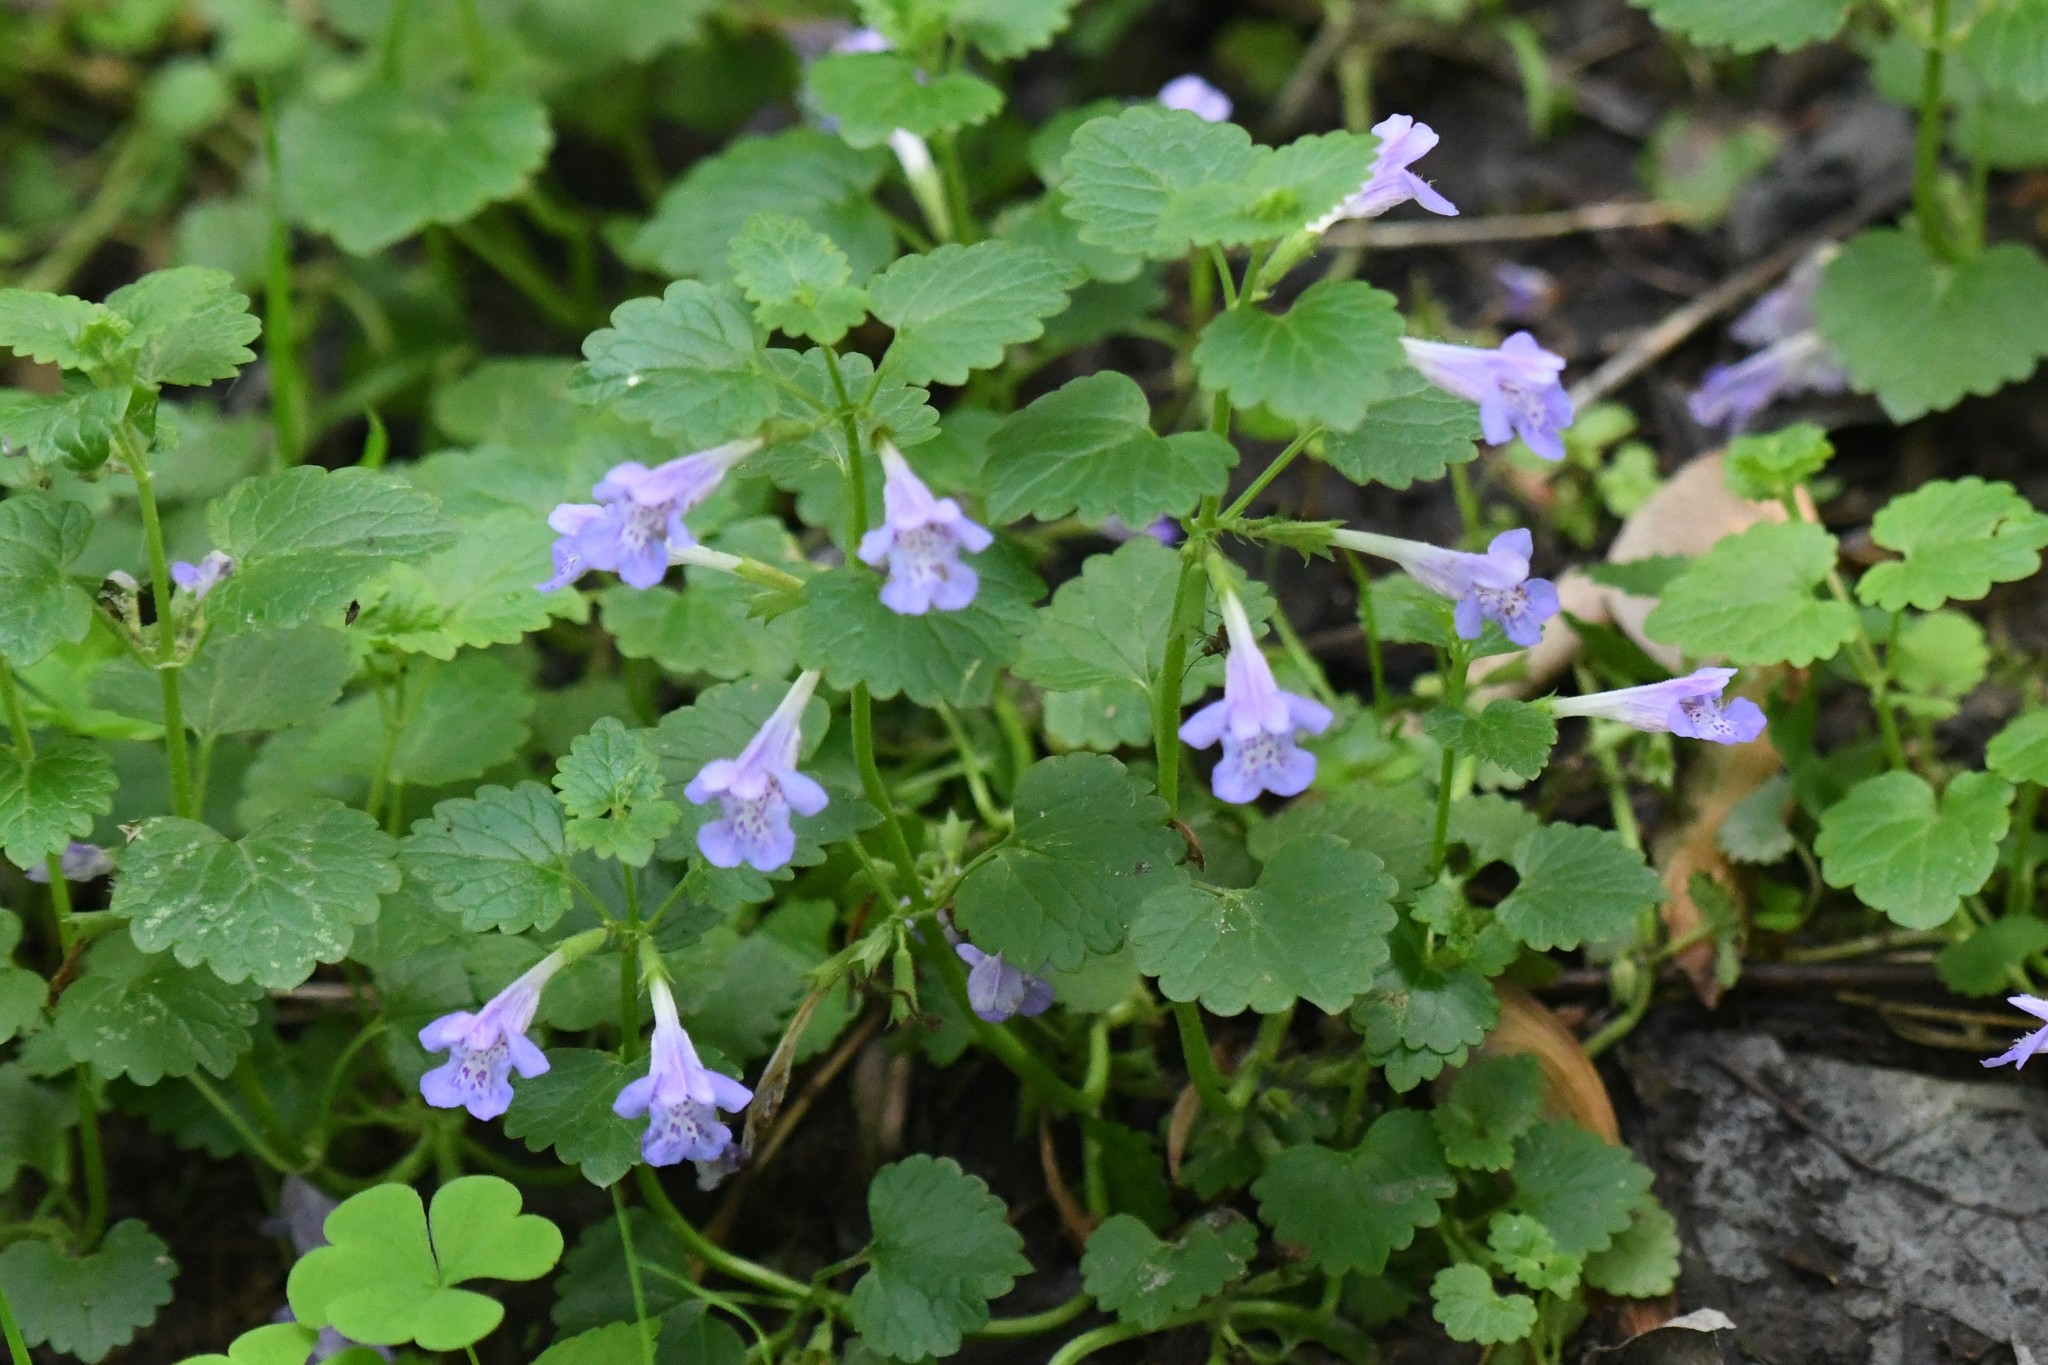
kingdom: Plantae
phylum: Tracheophyta
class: Magnoliopsida
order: Lamiales
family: Lamiaceae
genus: Glechoma
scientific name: Glechoma hederacea
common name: Ground ivy
